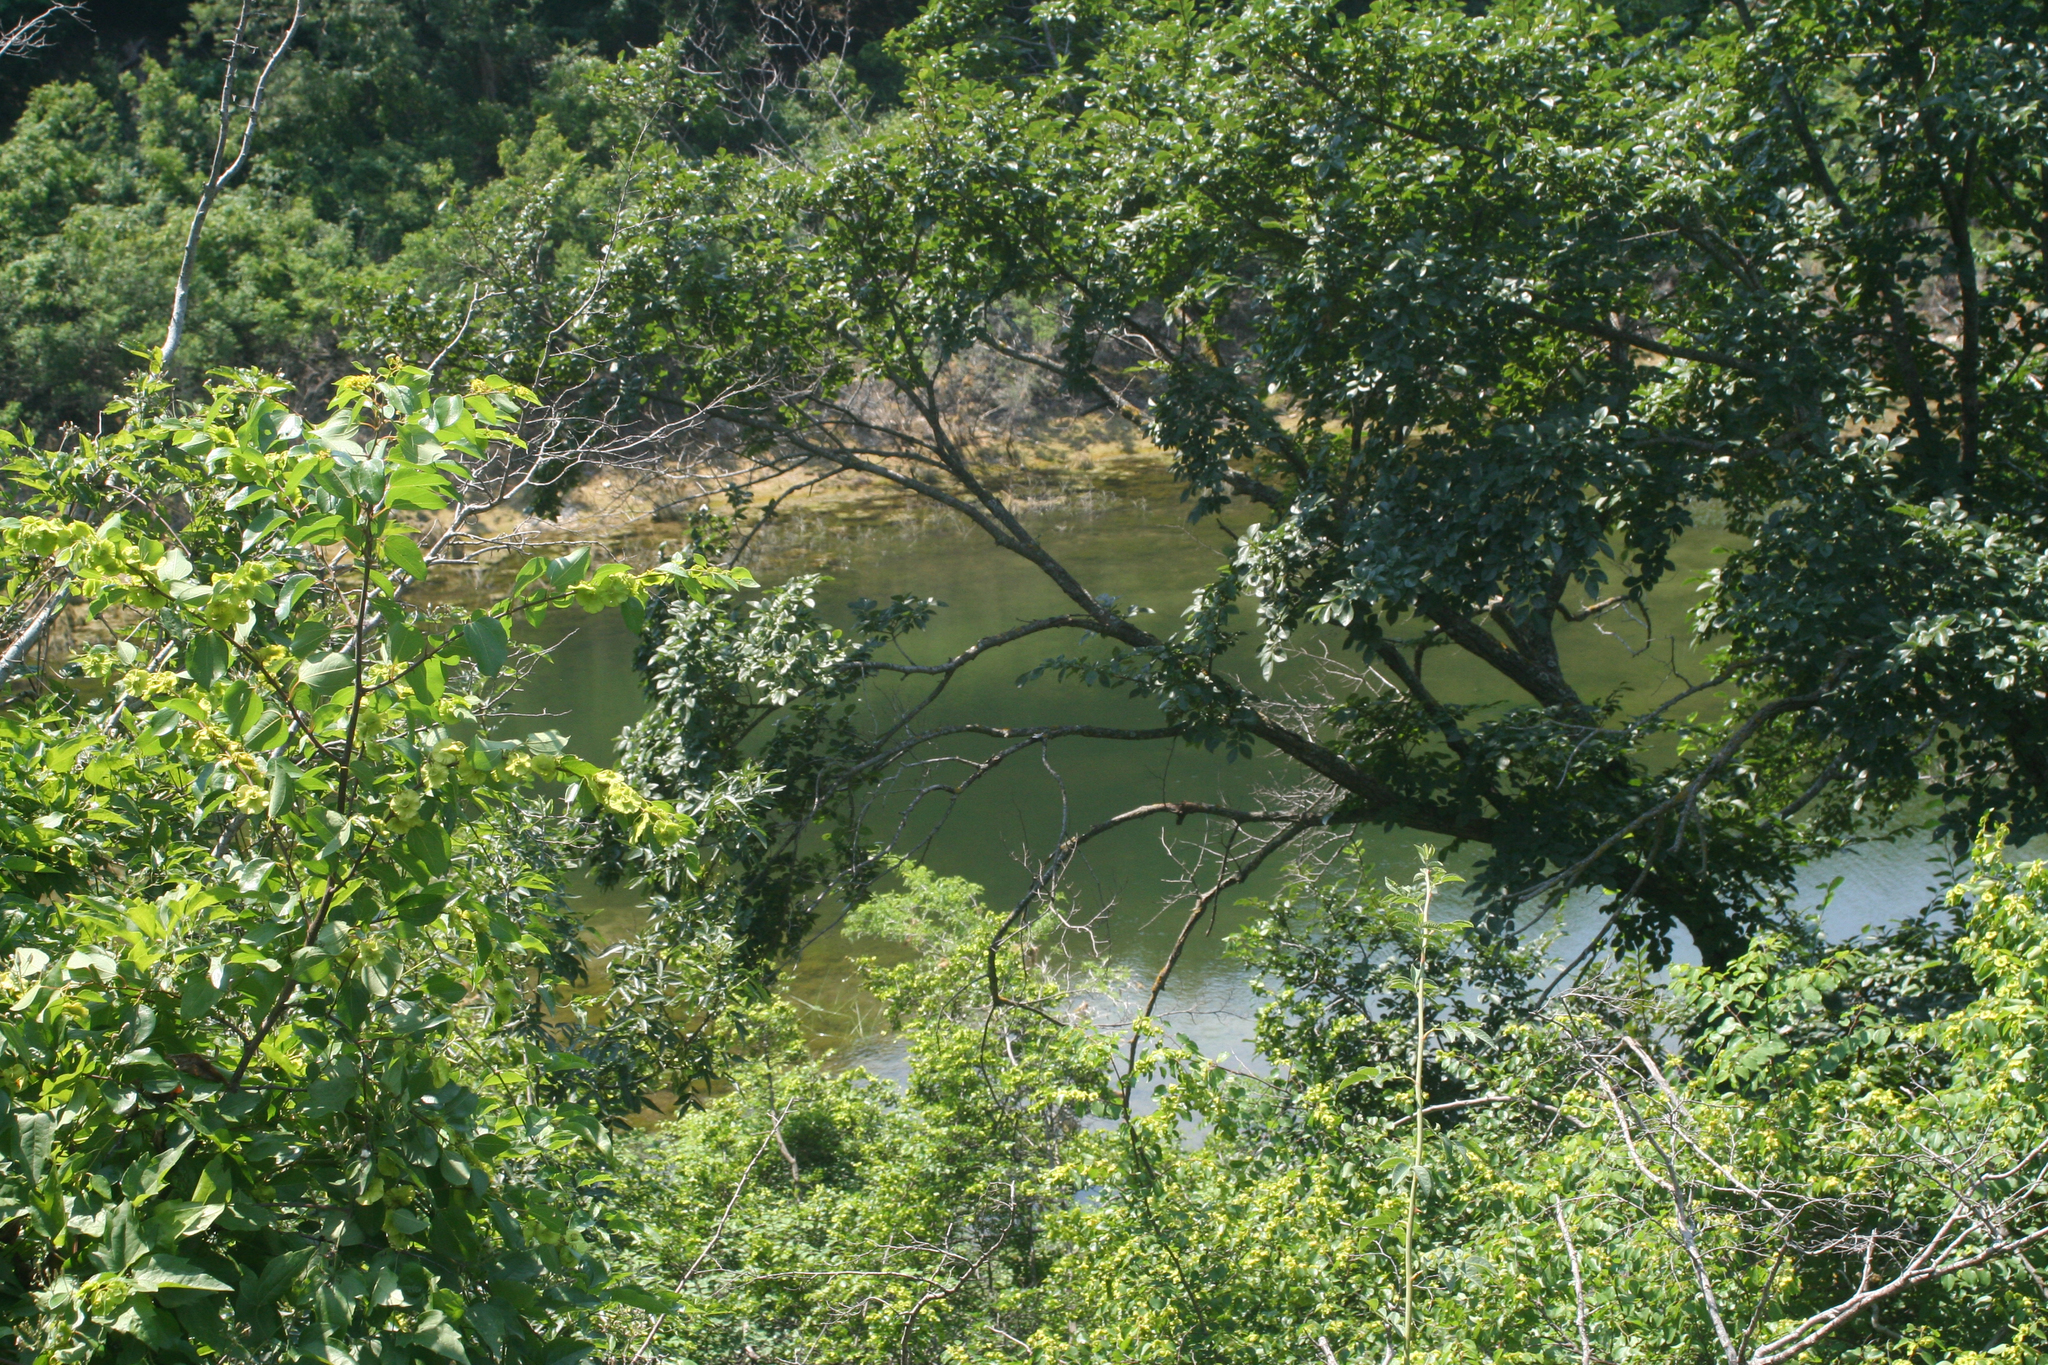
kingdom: Plantae
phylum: Tracheophyta
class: Magnoliopsida
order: Rosales
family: Ulmaceae
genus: Ulmus
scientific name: Ulmus minor
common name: Small-leaved elm
